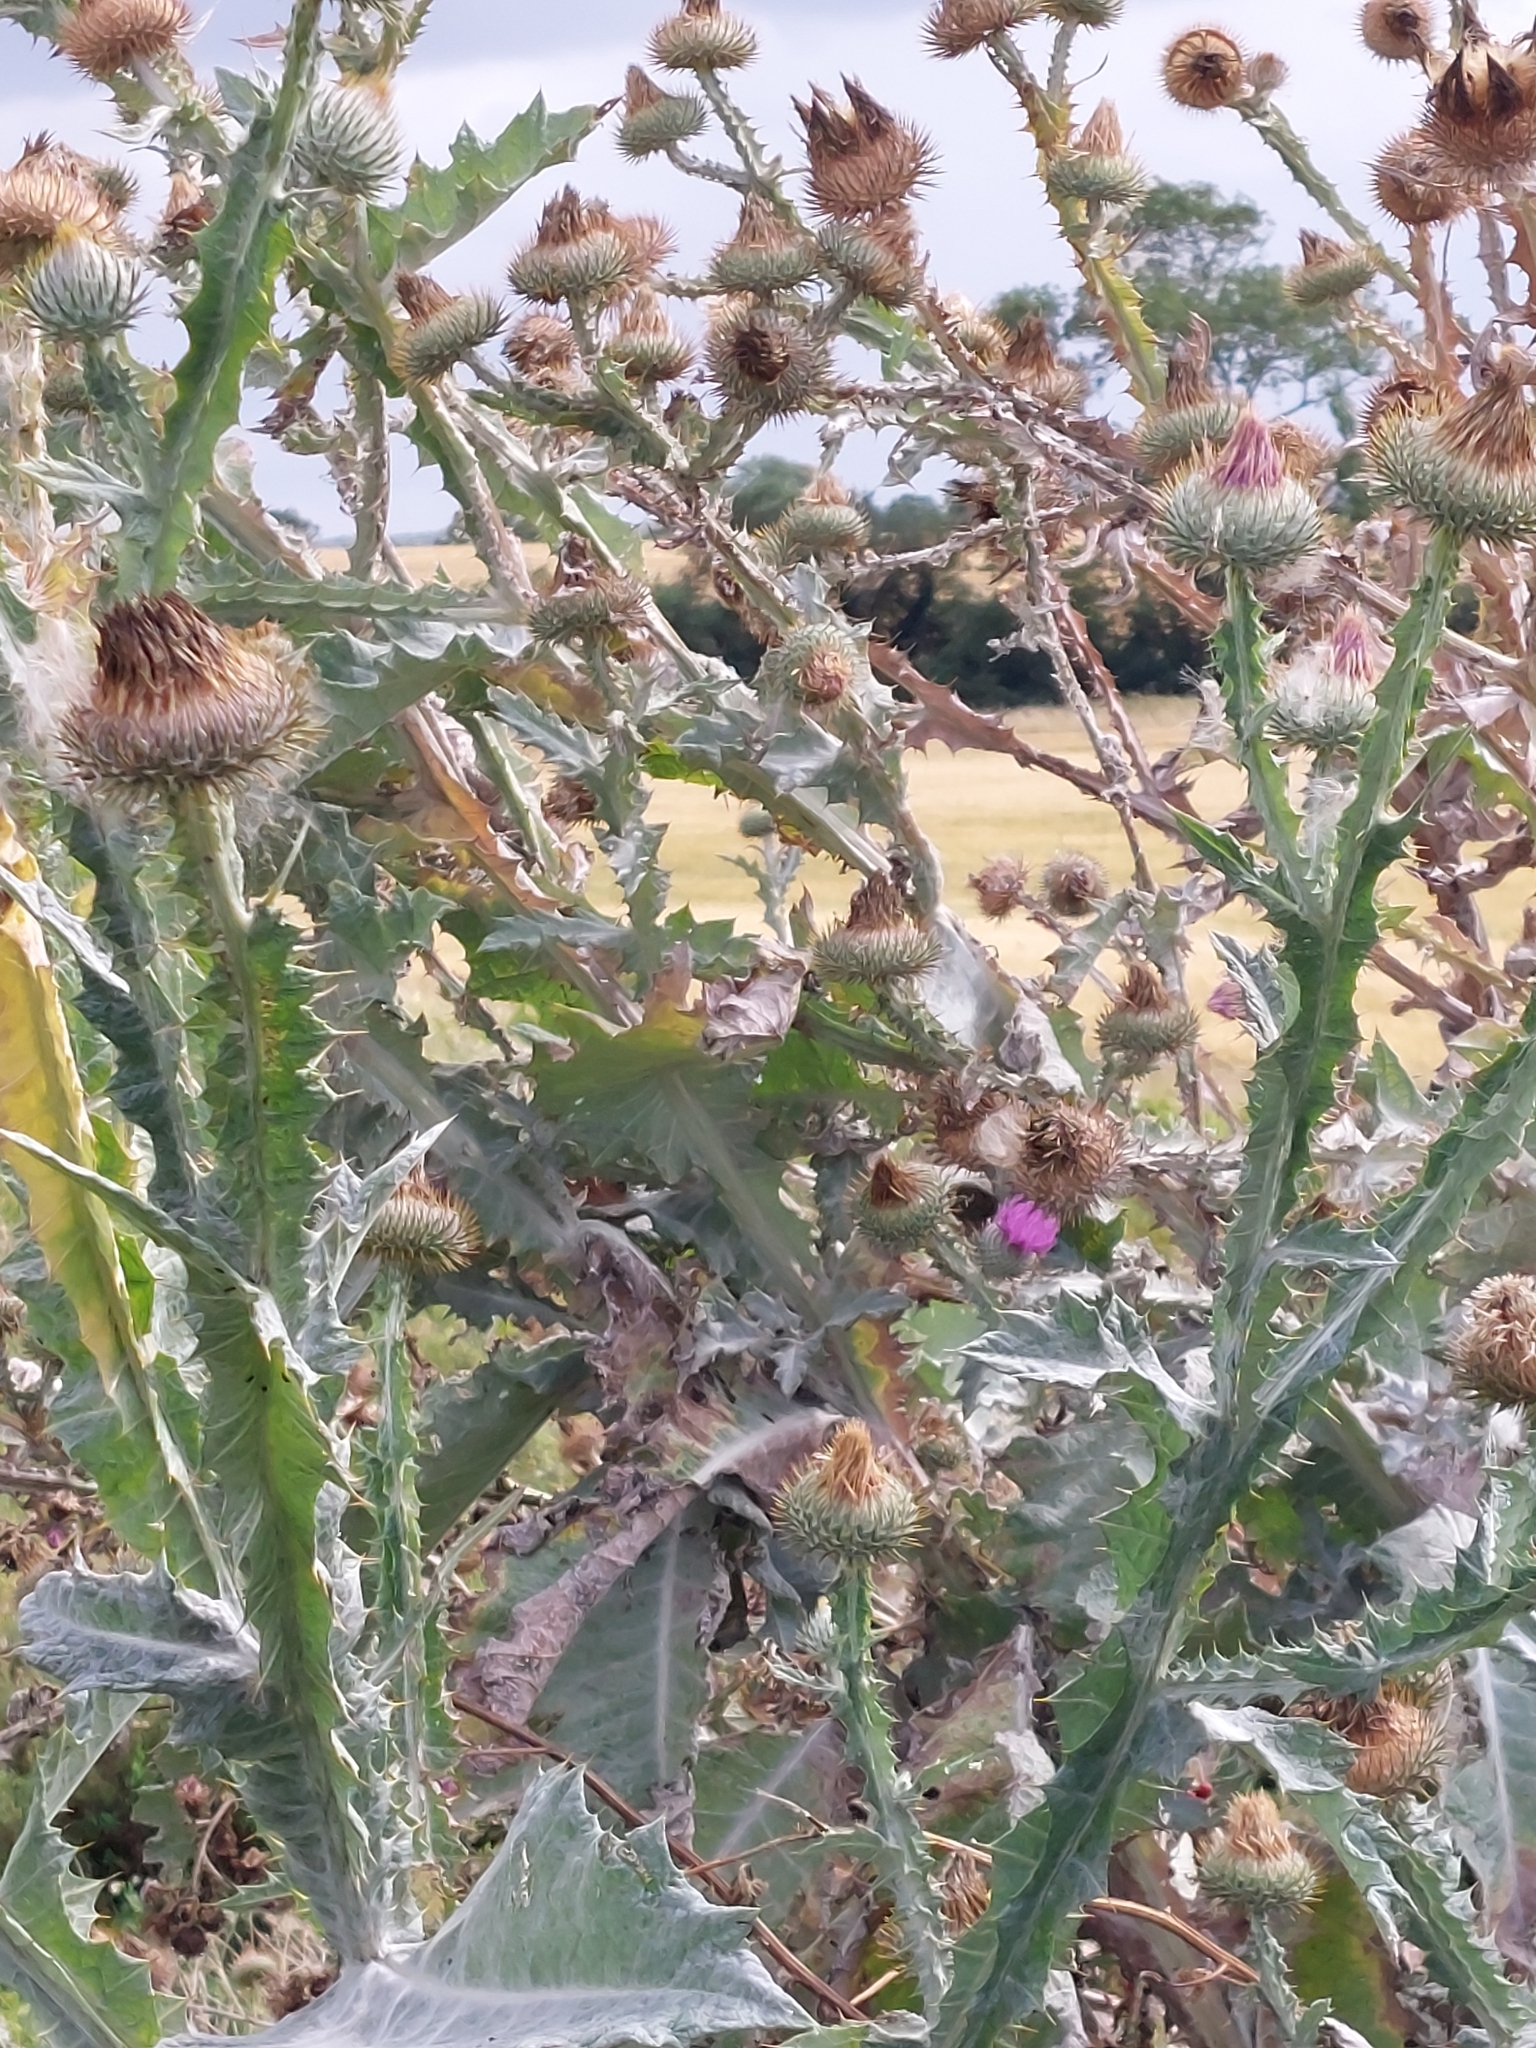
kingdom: Plantae
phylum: Tracheophyta
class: Magnoliopsida
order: Asterales
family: Asteraceae
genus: Onopordum
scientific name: Onopordum acanthium
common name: Scotch thistle
